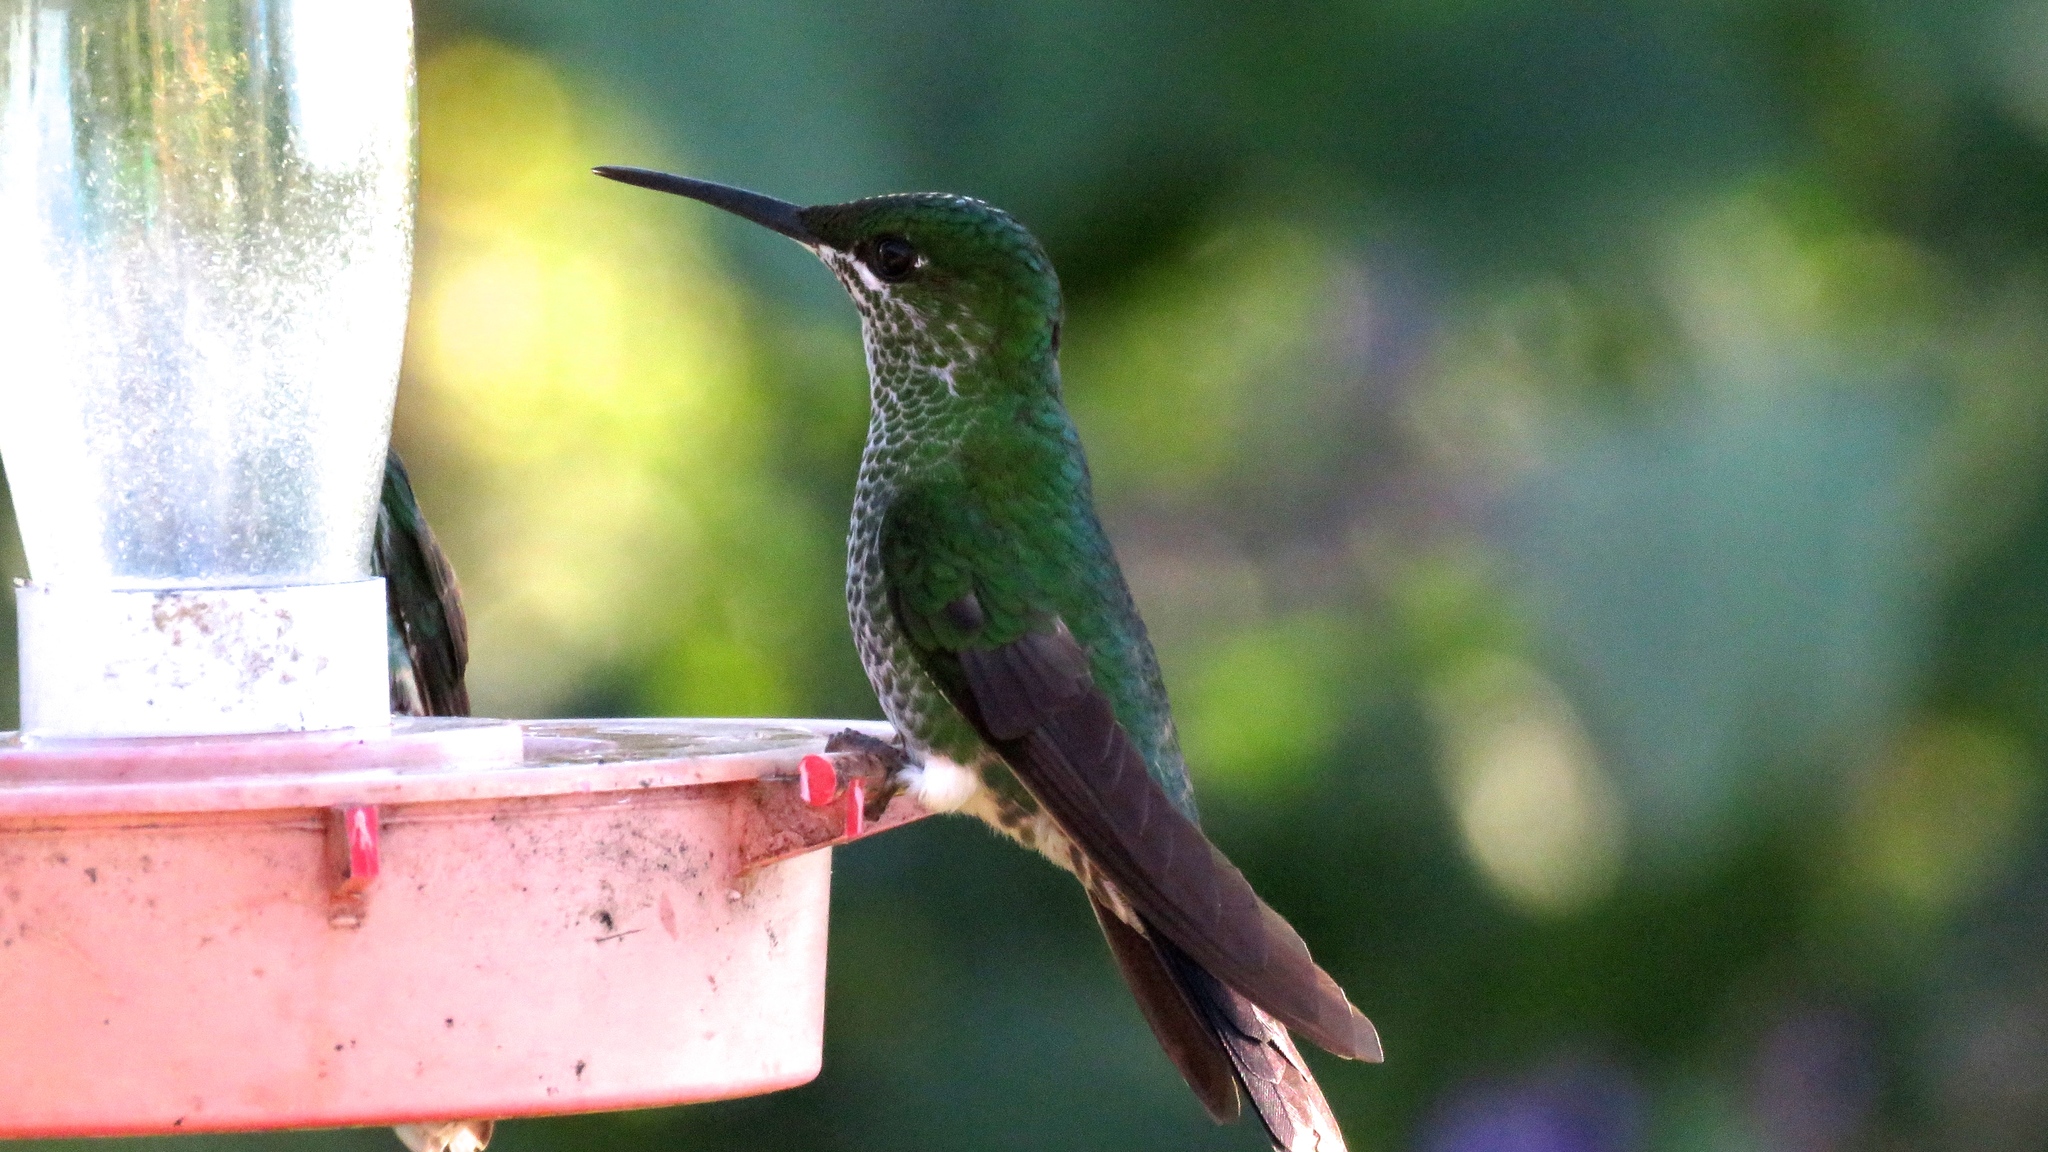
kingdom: Animalia
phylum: Chordata
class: Aves
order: Apodiformes
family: Trochilidae
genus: Heliodoxa
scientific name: Heliodoxa jacula
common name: Green-crowned brilliant
